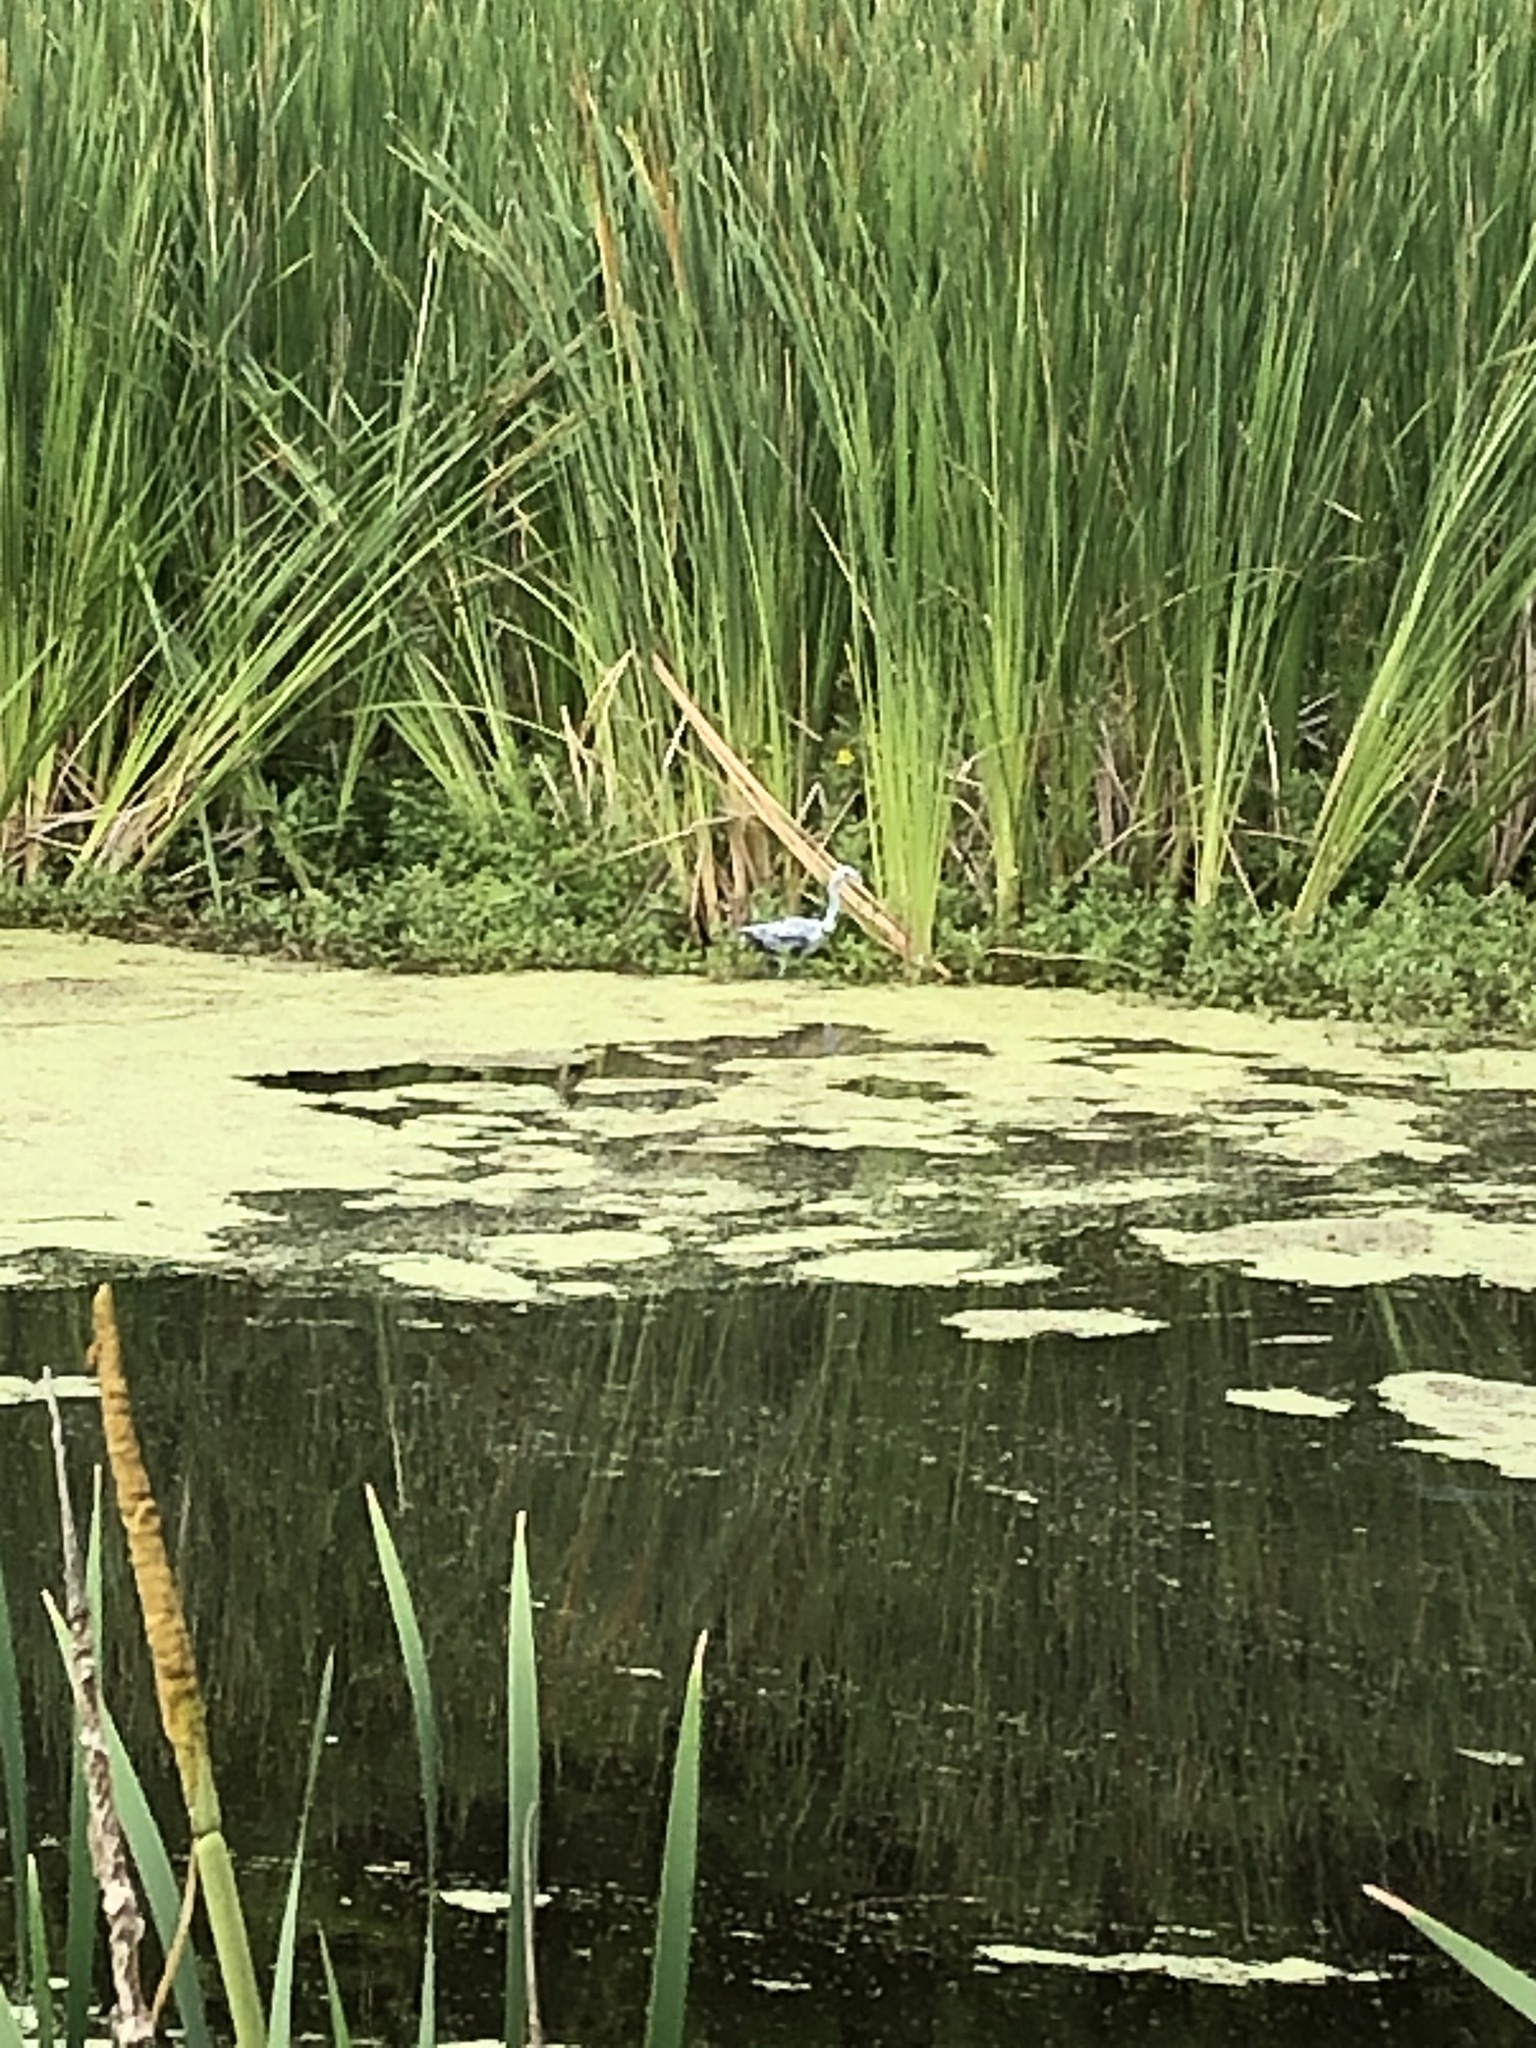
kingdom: Animalia
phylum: Chordata
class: Aves
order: Pelecaniformes
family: Ardeidae
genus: Egretta
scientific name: Egretta caerulea
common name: Little blue heron
